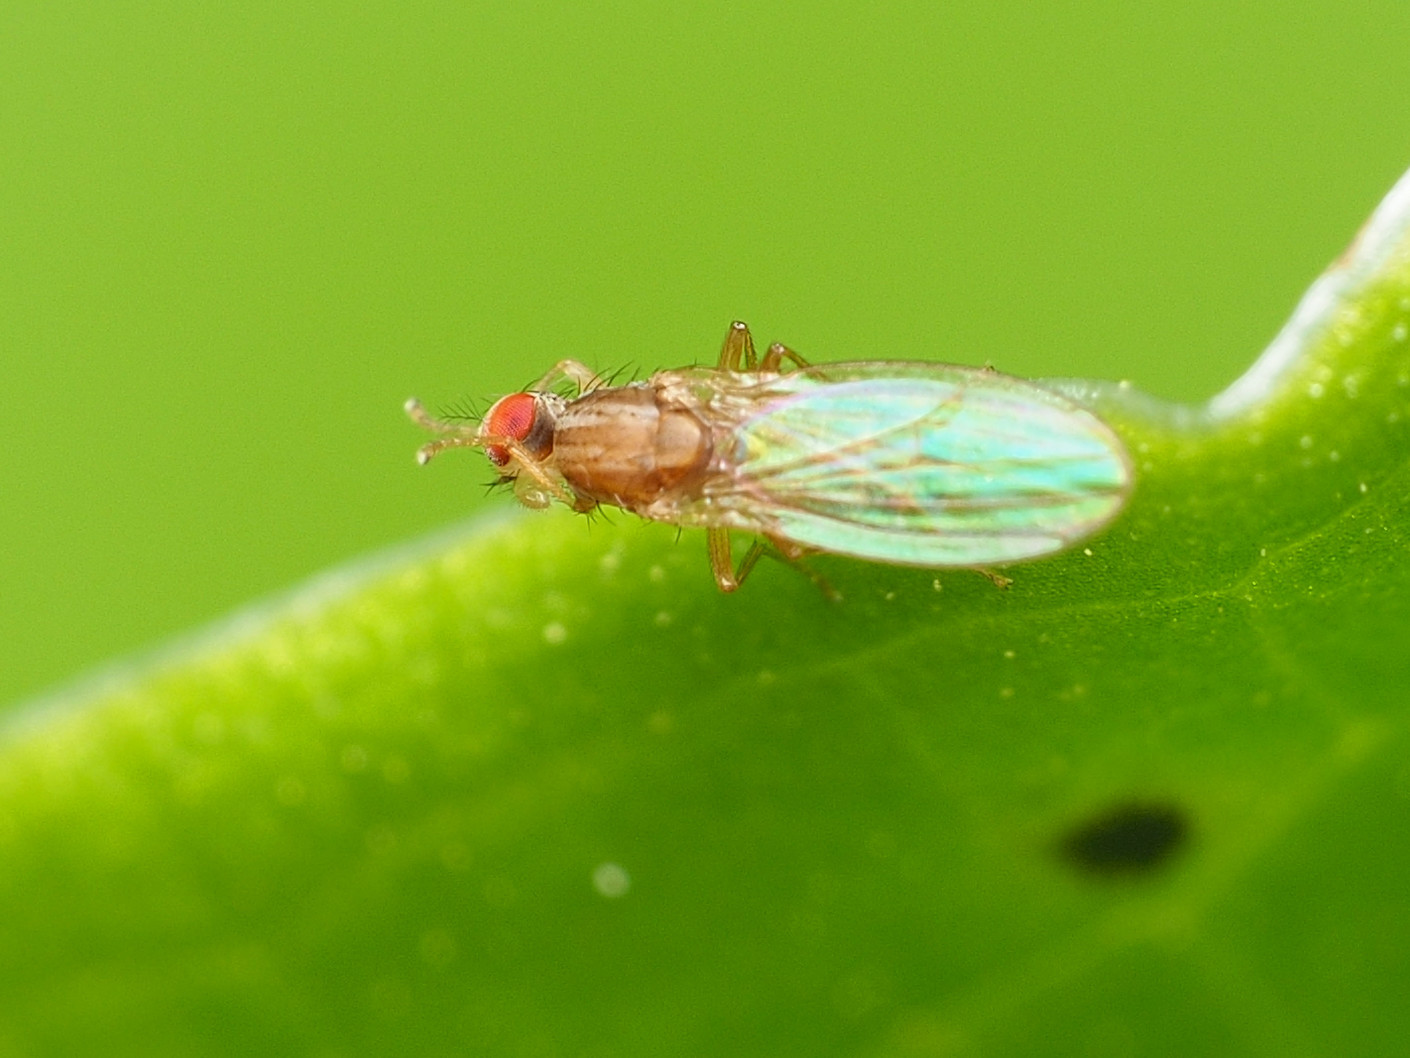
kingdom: Animalia
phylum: Arthropoda
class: Insecta
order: Diptera
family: Drosophilidae
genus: Scaptomyza
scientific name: Scaptomyza wheeleri
